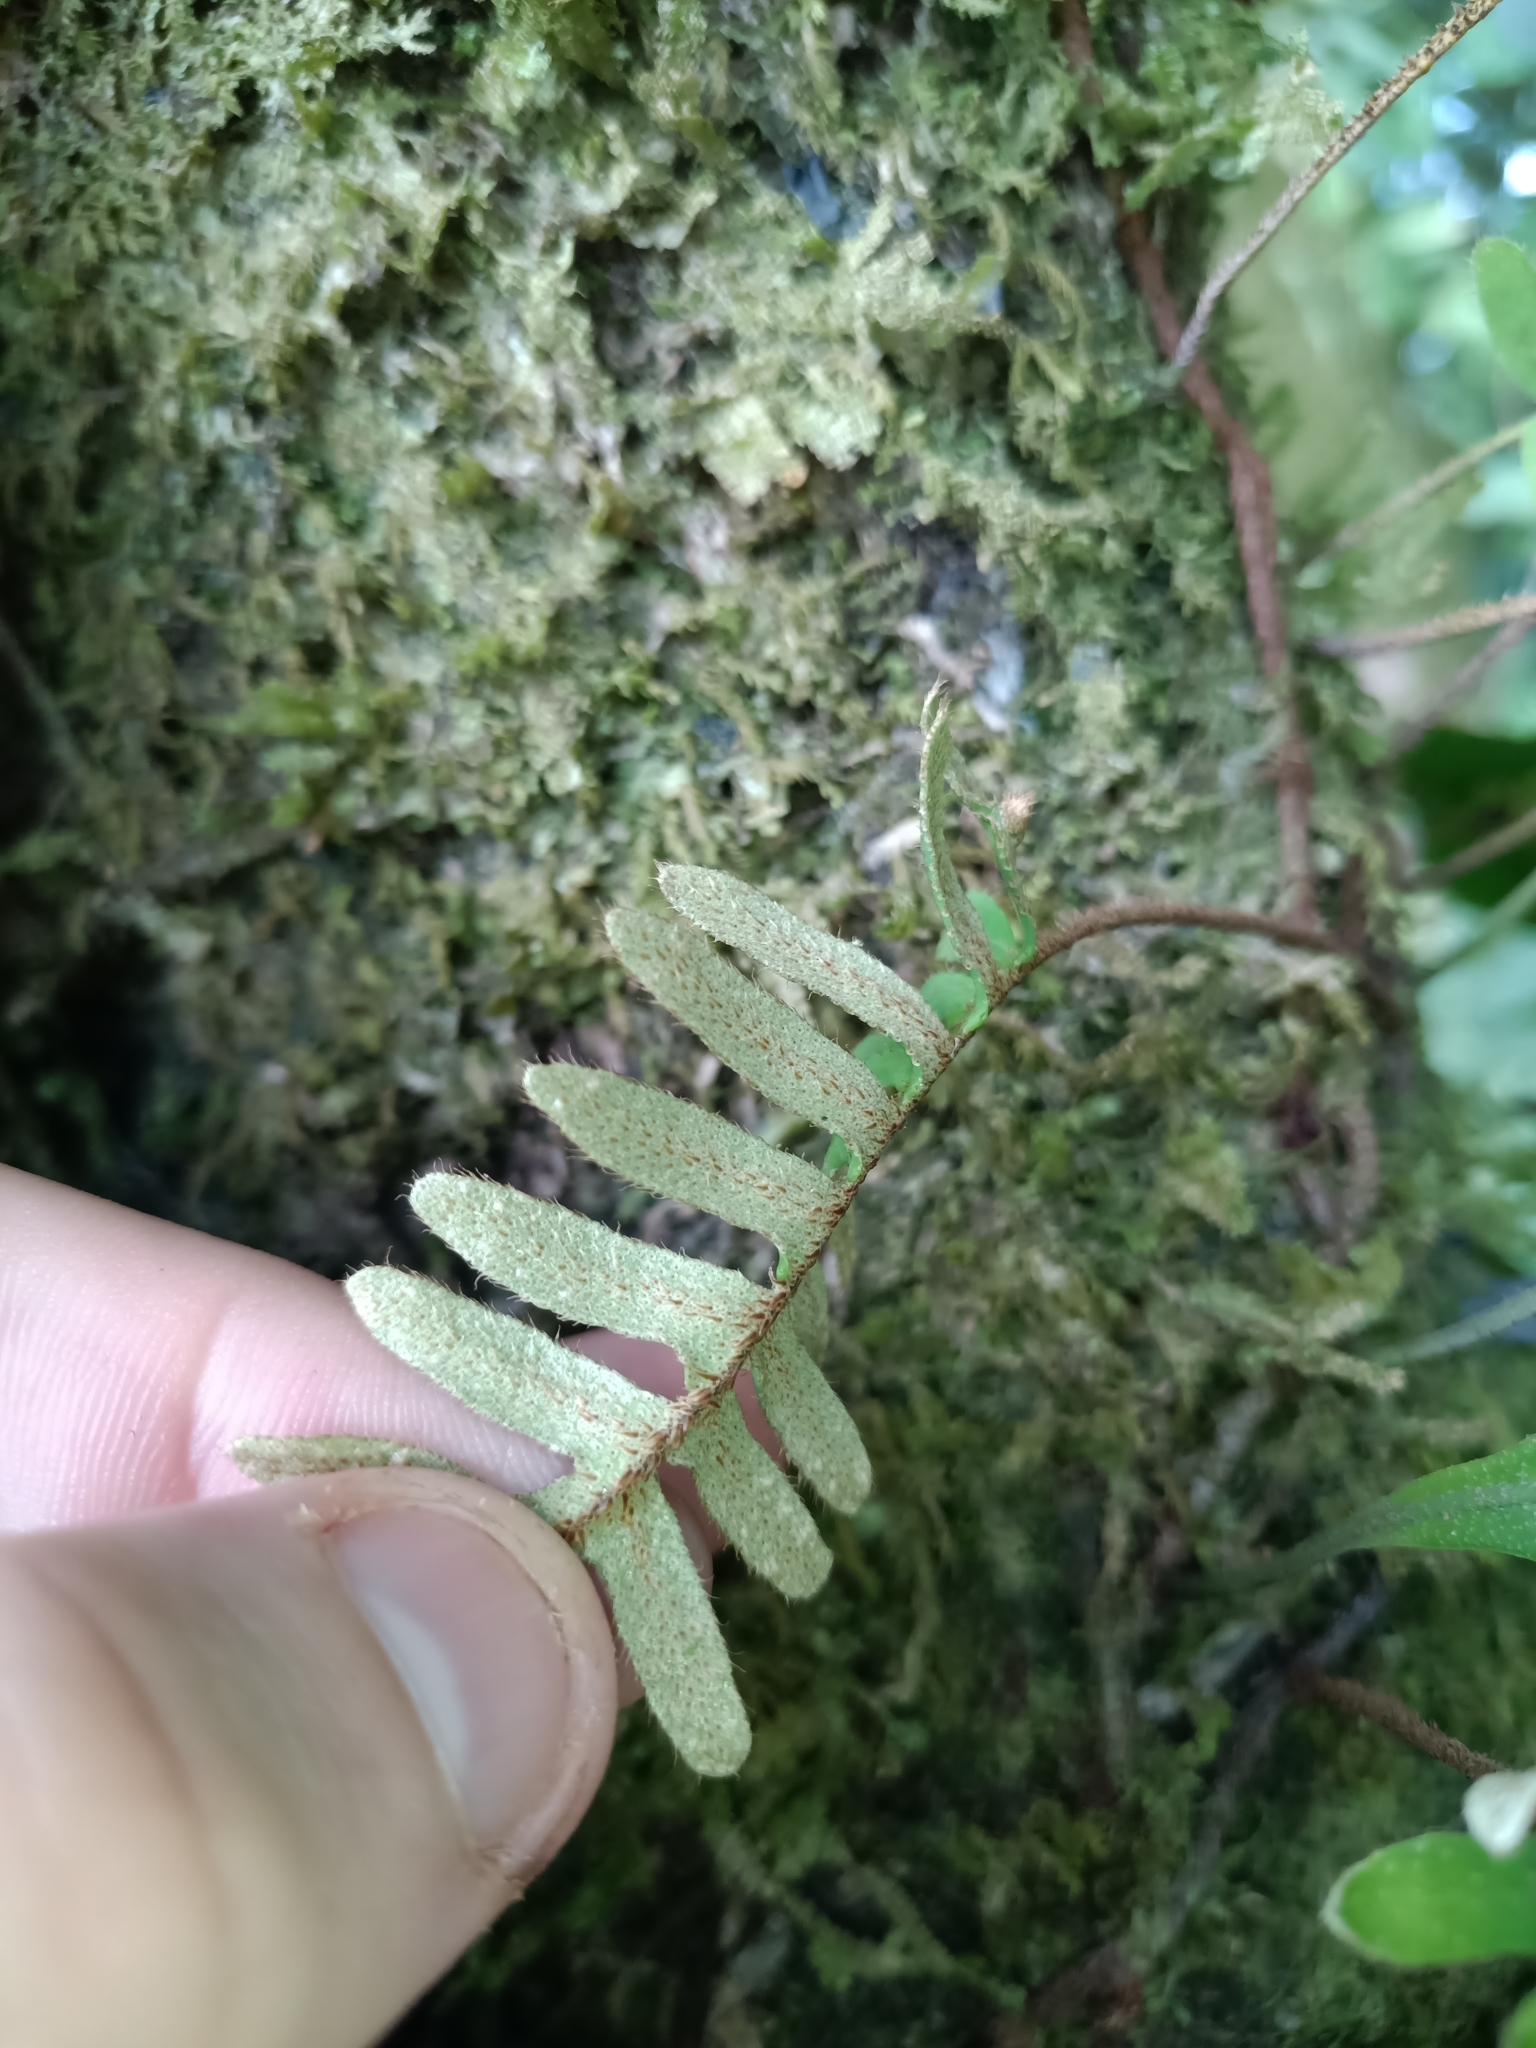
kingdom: Plantae
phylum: Tracheophyta
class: Polypodiopsida
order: Polypodiales
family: Polypodiaceae
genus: Pleopeltis
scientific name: Pleopeltis burchellii
